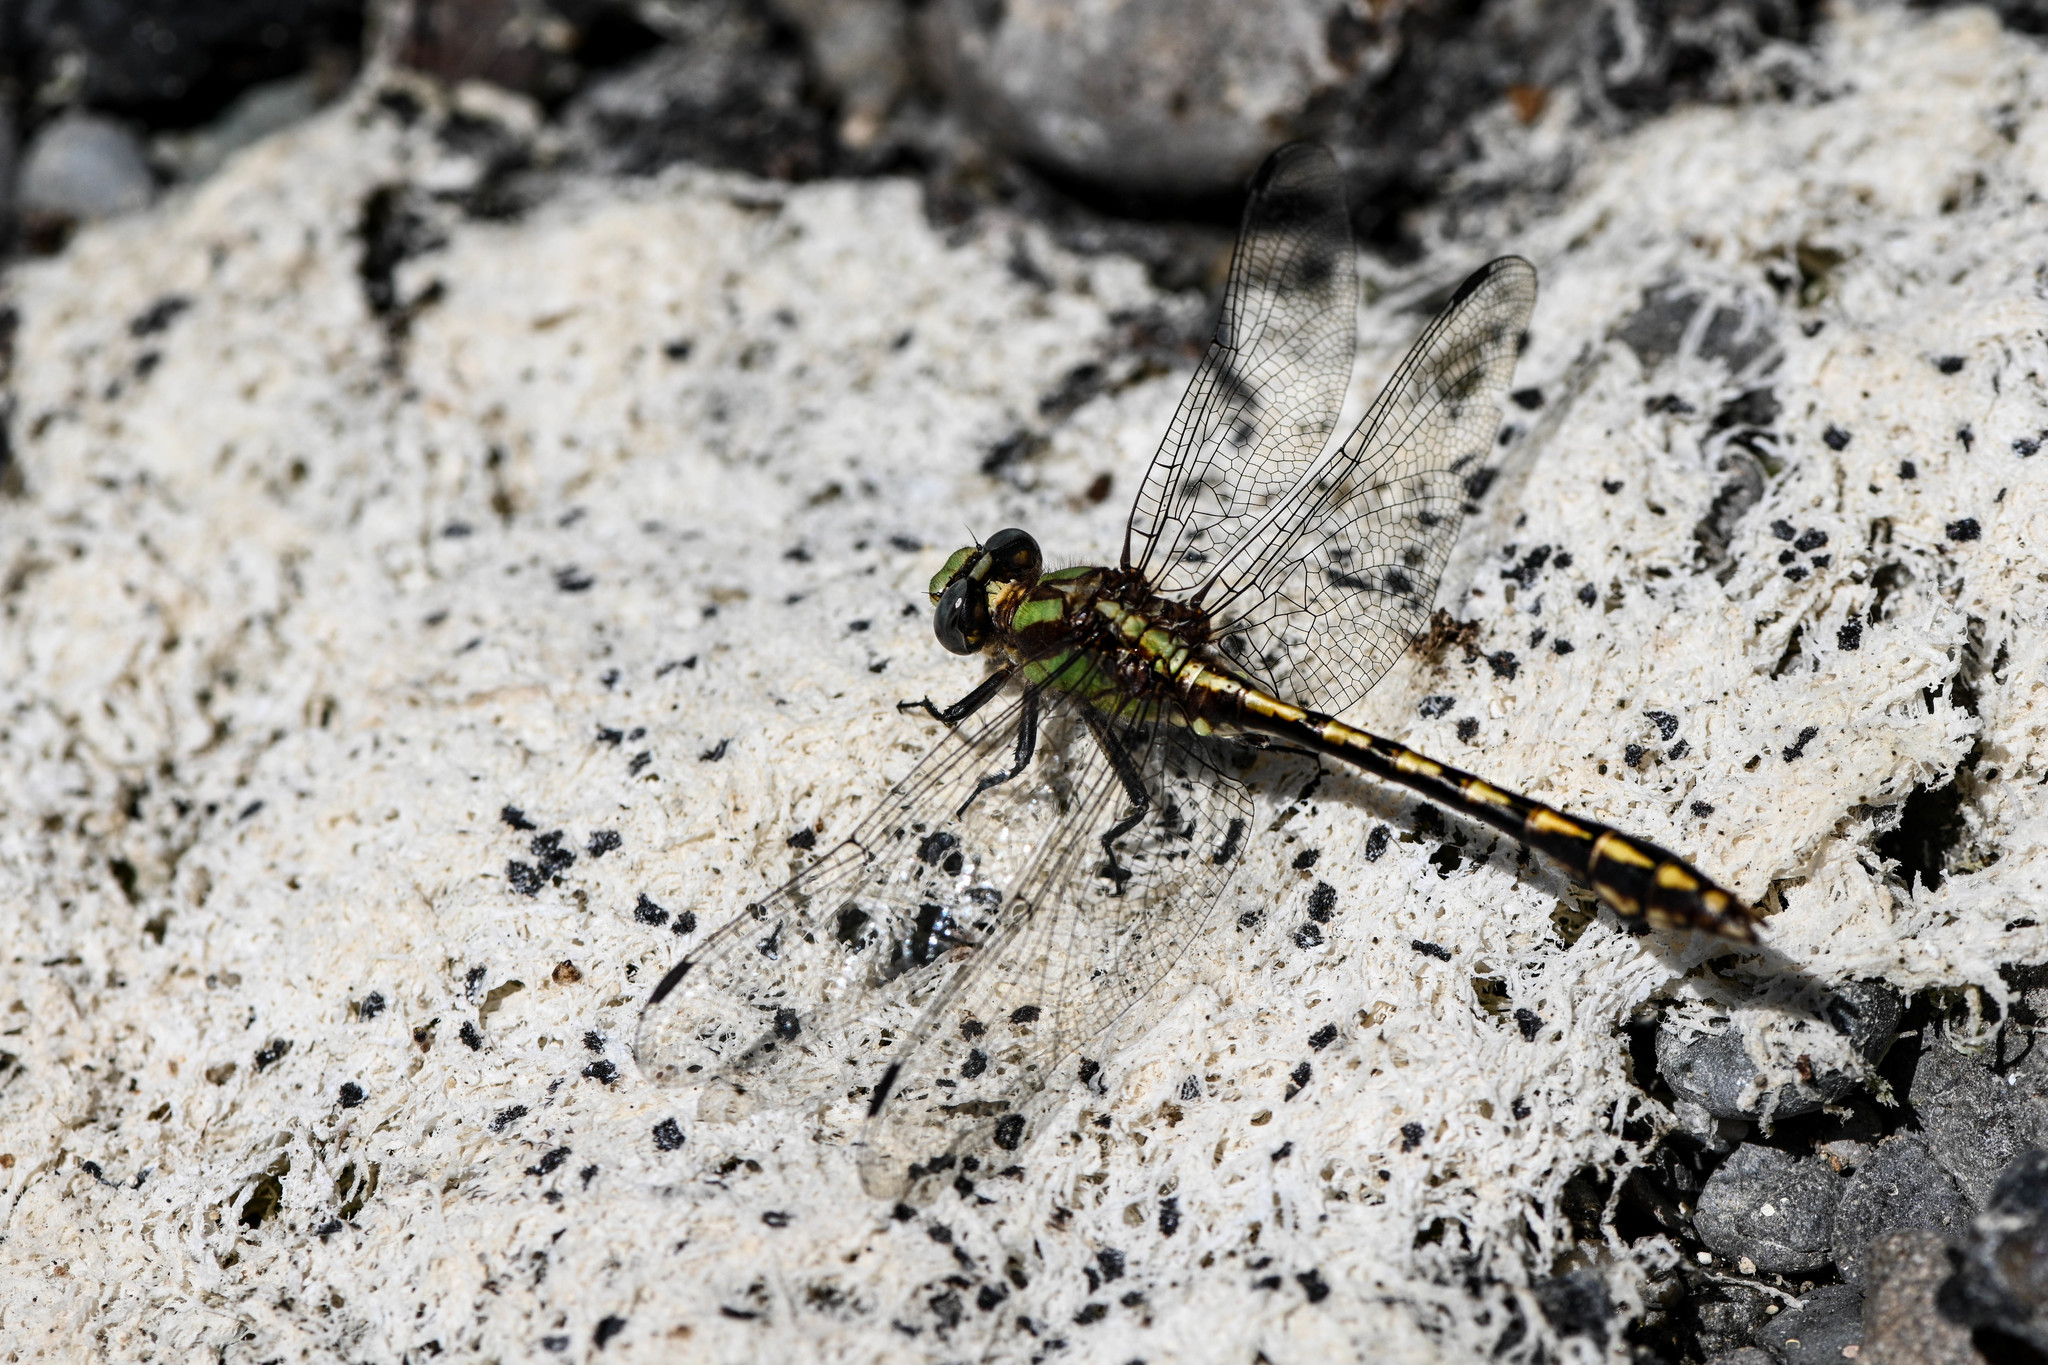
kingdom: Animalia
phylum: Arthropoda
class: Insecta
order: Odonata
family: Gomphidae
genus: Ophiogomphus
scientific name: Ophiogomphus bison
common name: Bison snaketail
